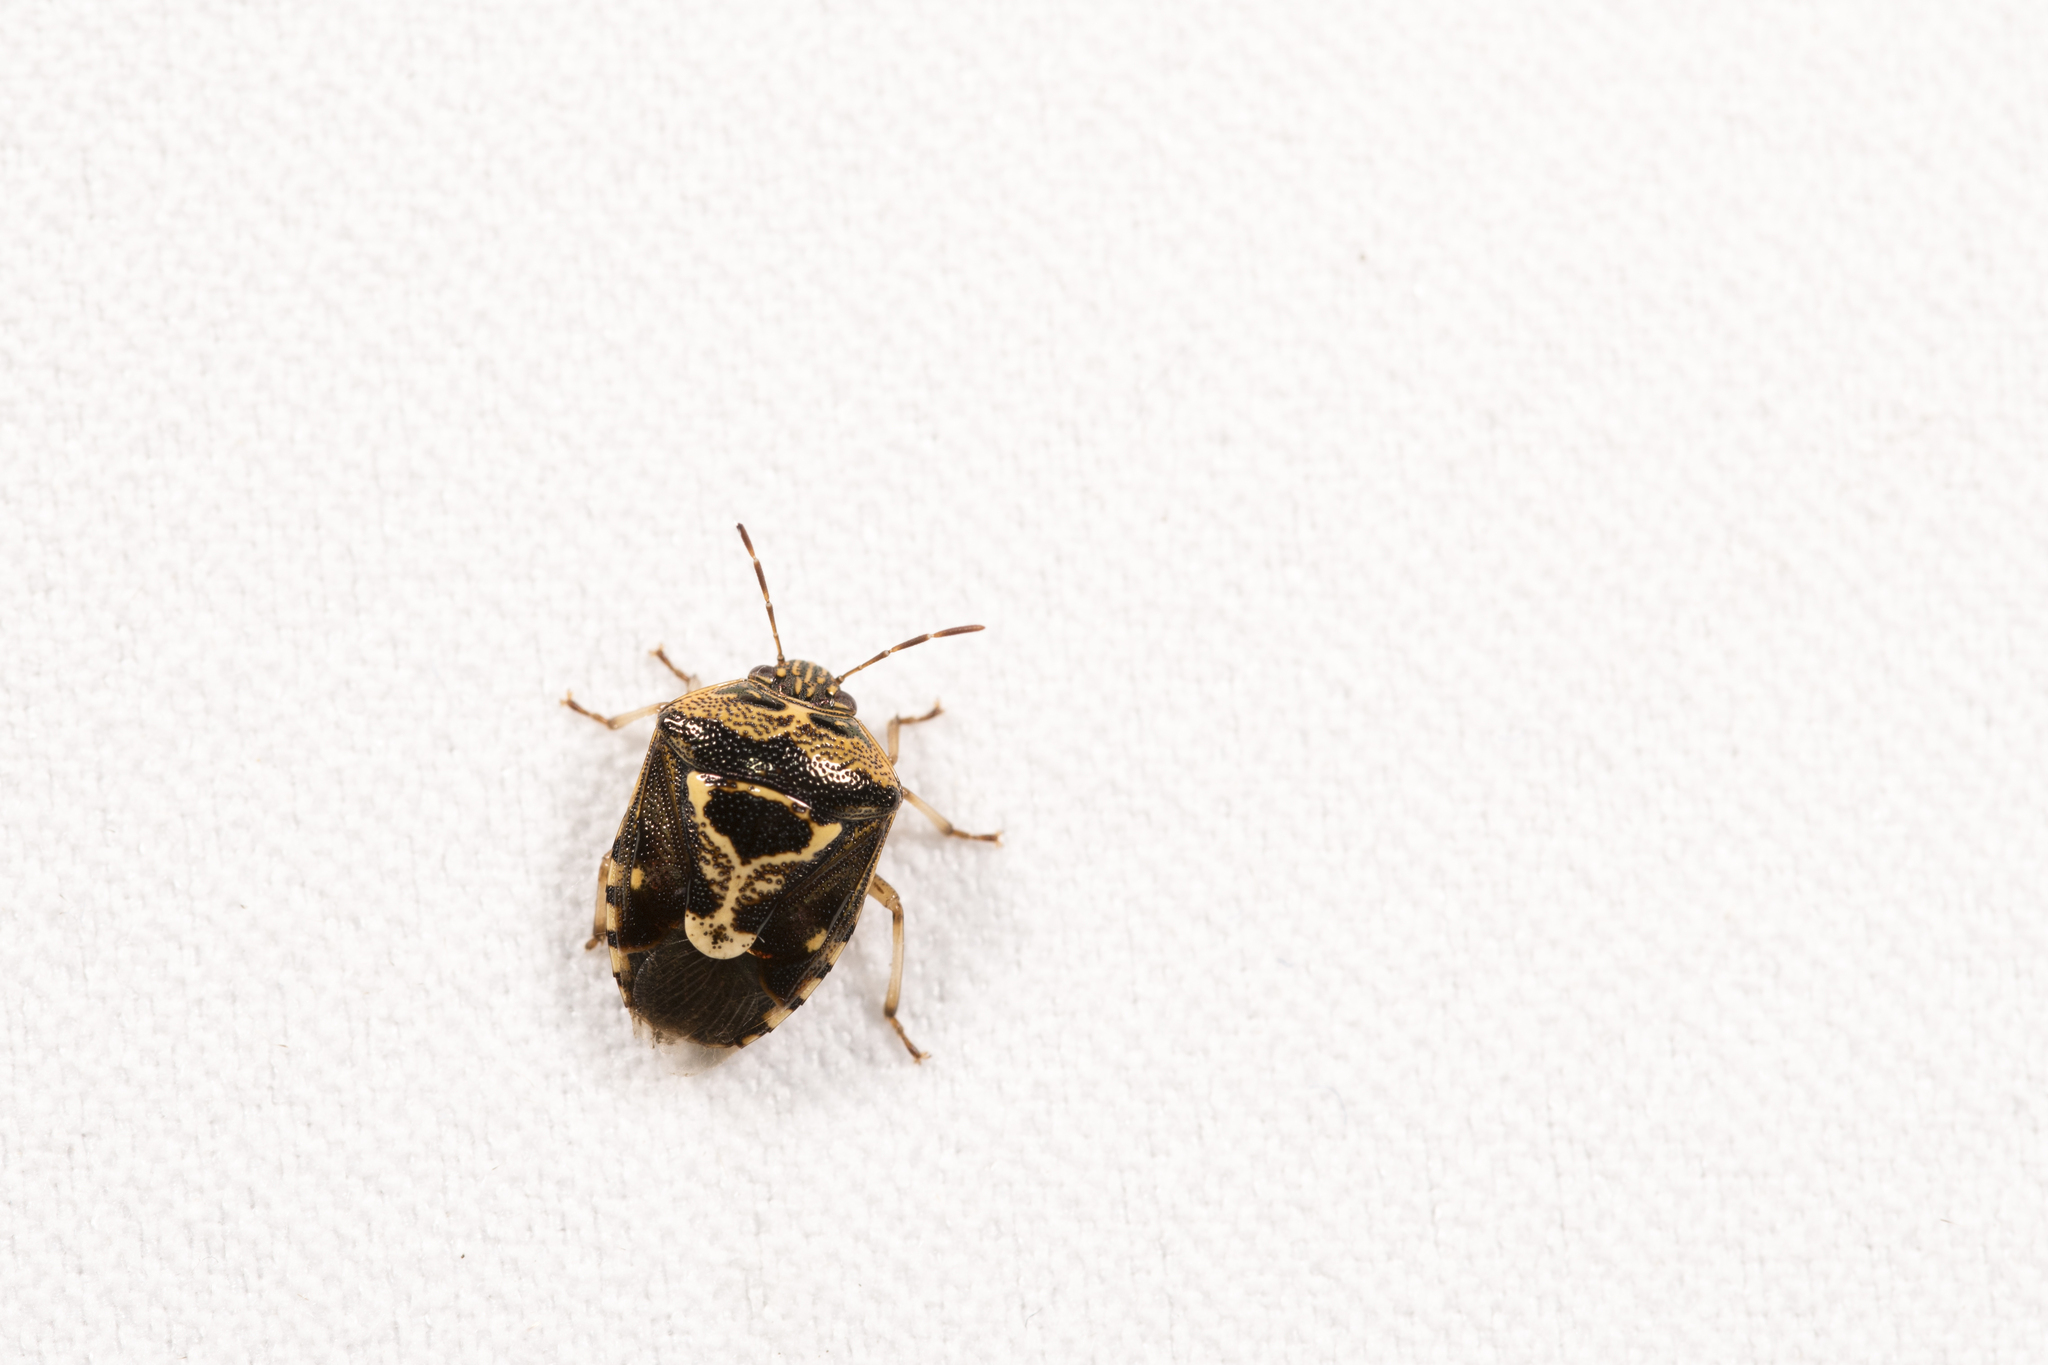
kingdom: Animalia
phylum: Arthropoda
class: Insecta
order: Hemiptera
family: Pentatomidae
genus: Menida
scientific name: Menida formosa
